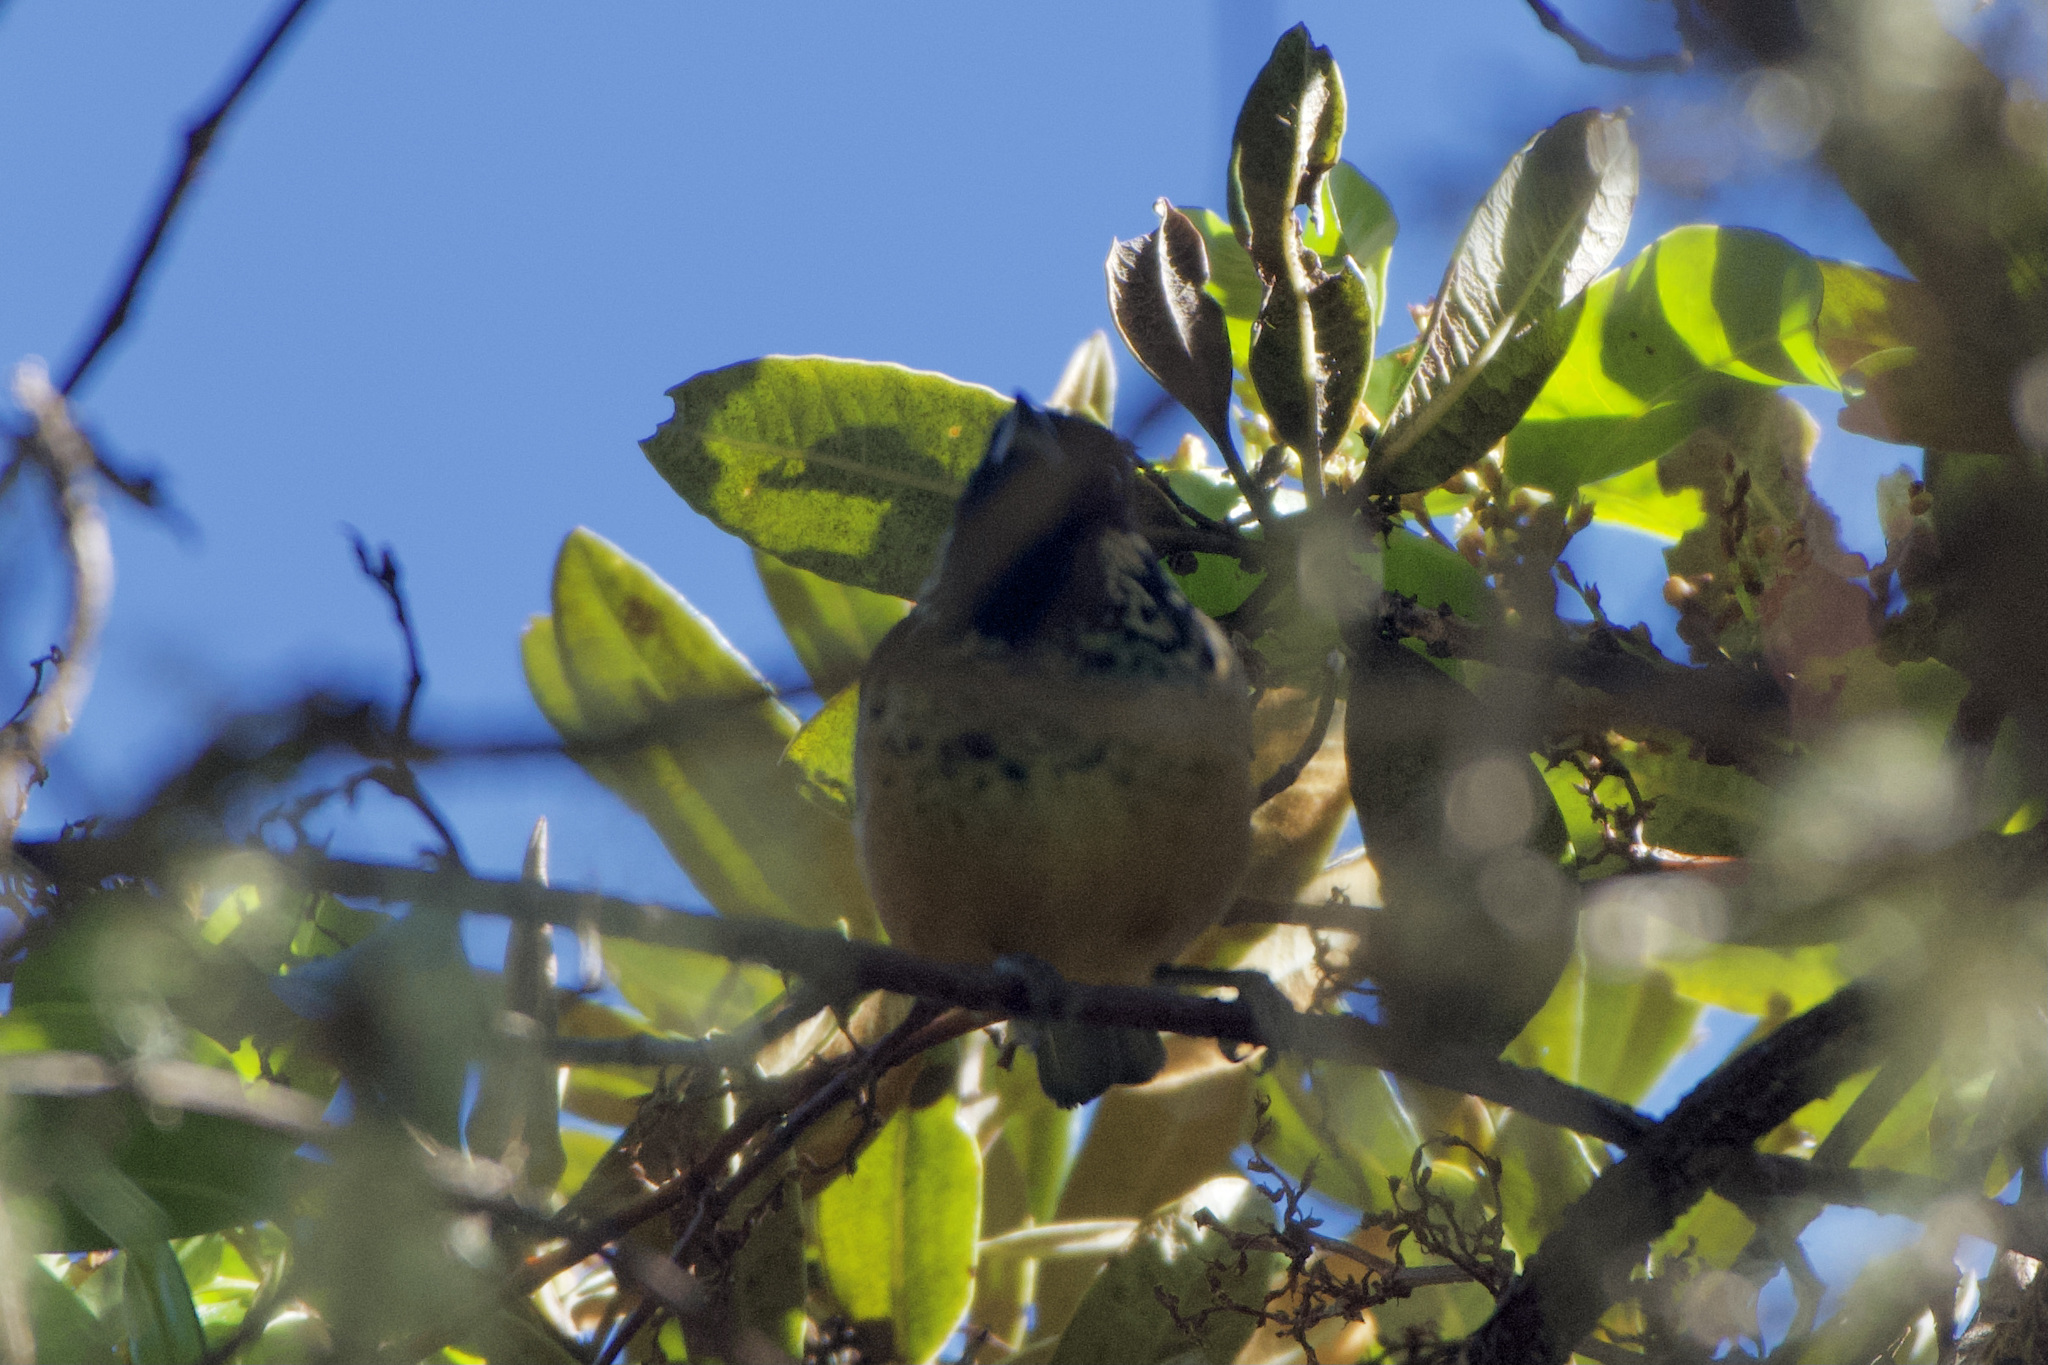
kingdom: Animalia
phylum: Chordata
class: Aves
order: Passeriformes
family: Thraupidae
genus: Tangara
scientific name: Tangara dowii
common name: Spangle-cheeked tanager
